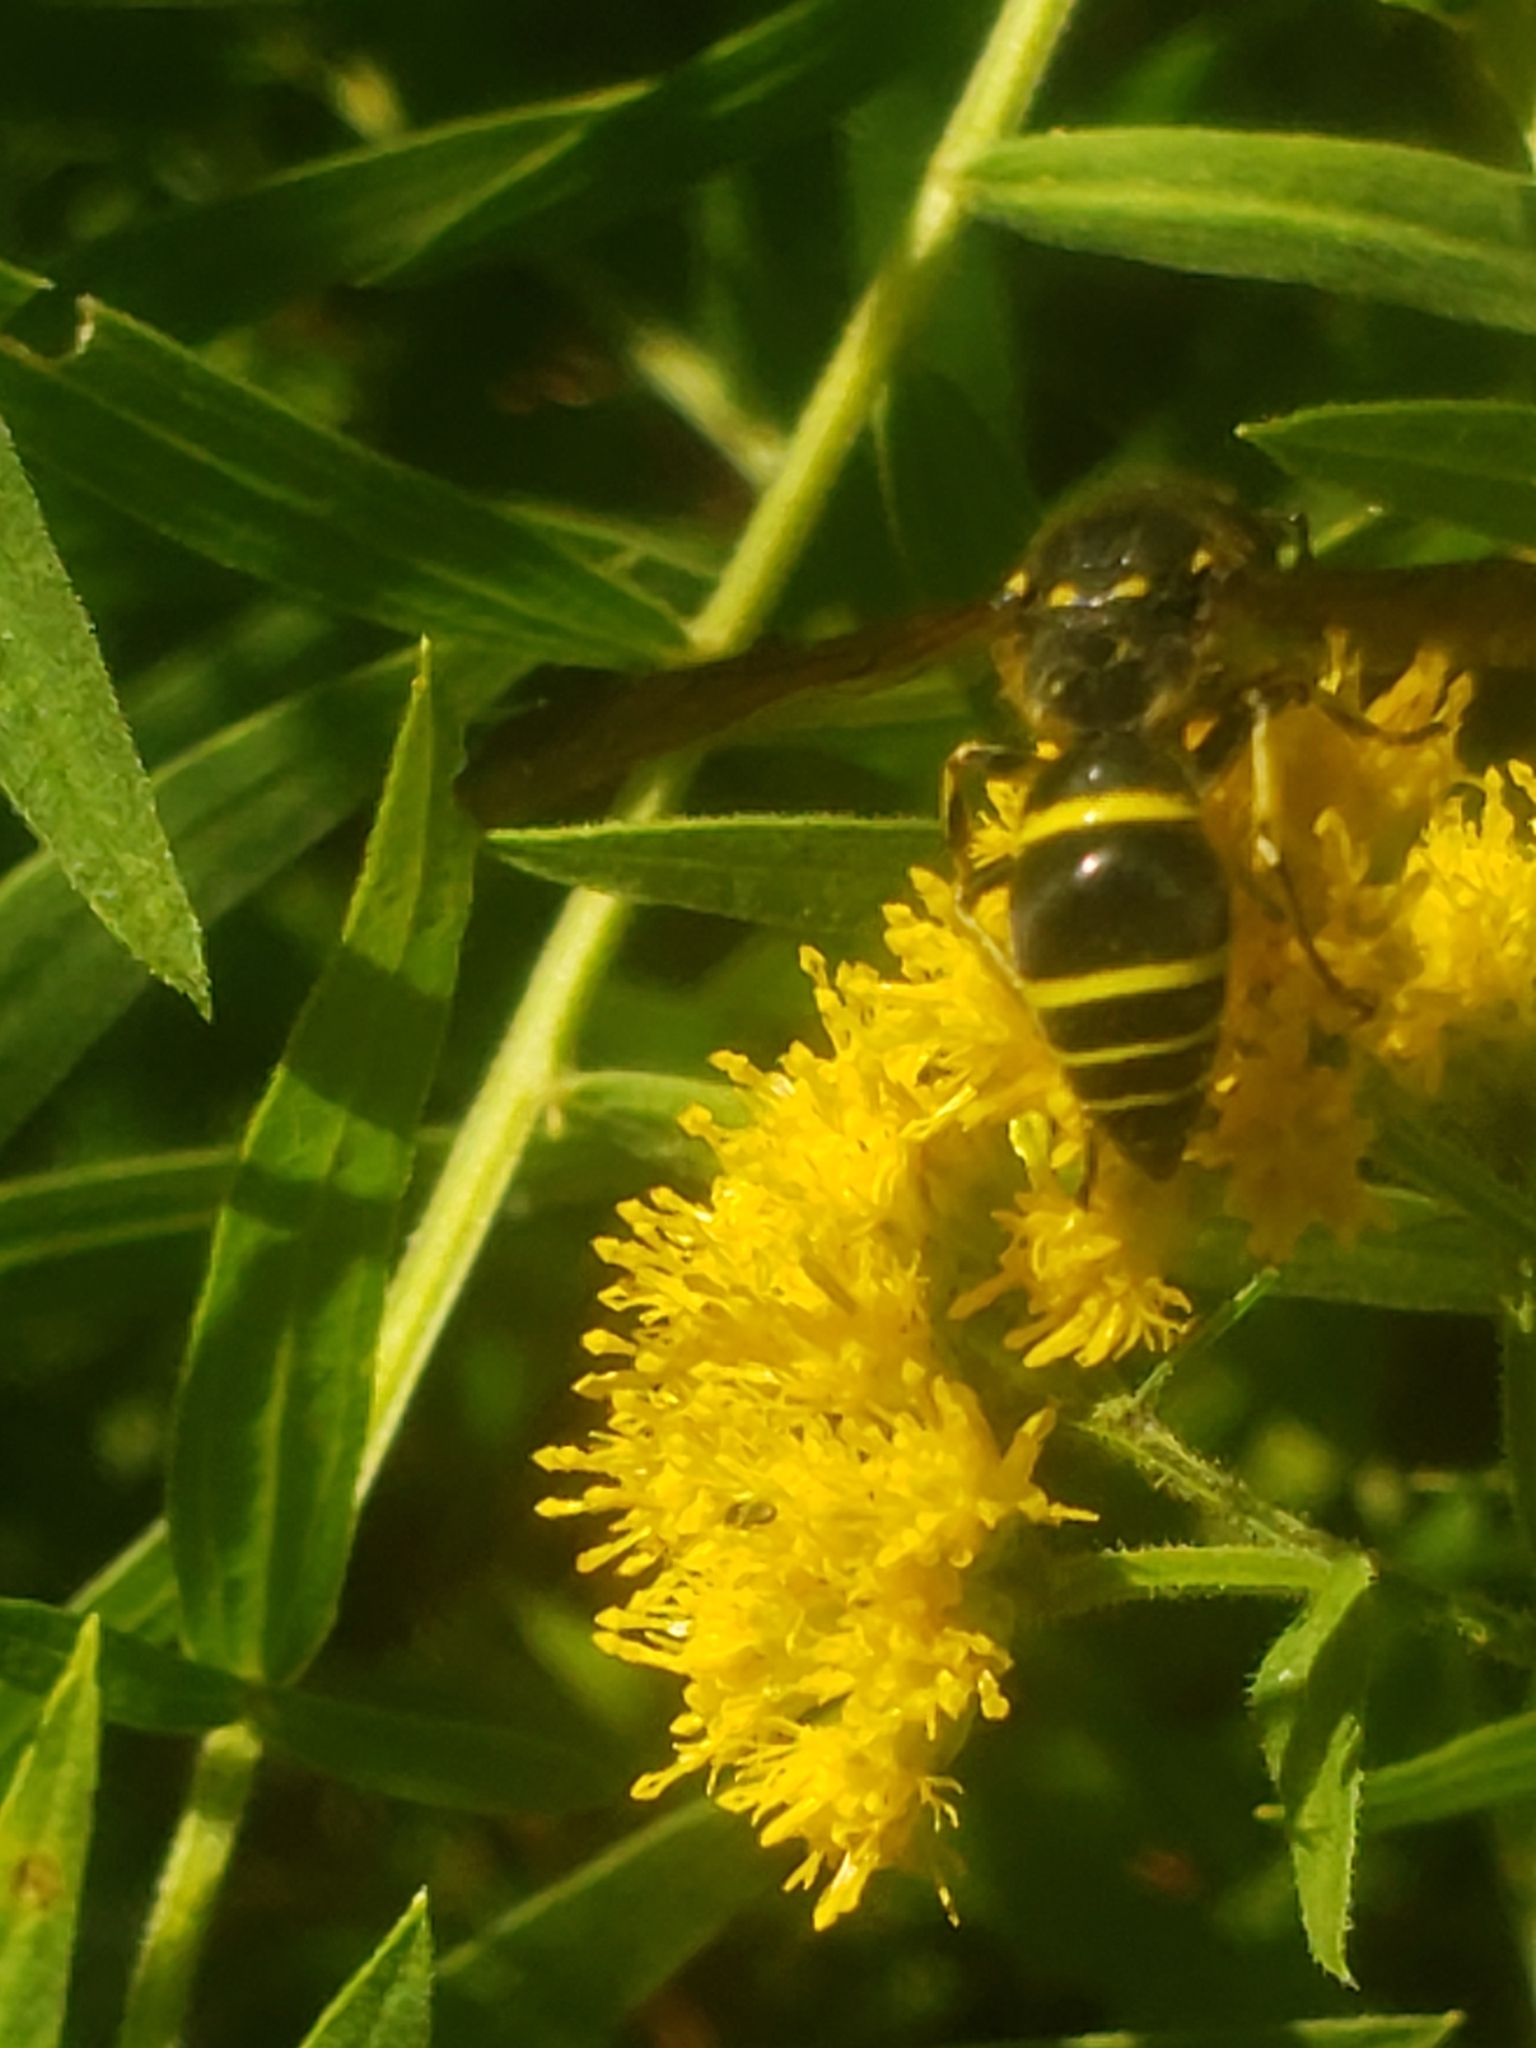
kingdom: Animalia
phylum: Arthropoda
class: Insecta
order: Hymenoptera
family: Vespidae
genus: Ancistrocerus
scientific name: Ancistrocerus
